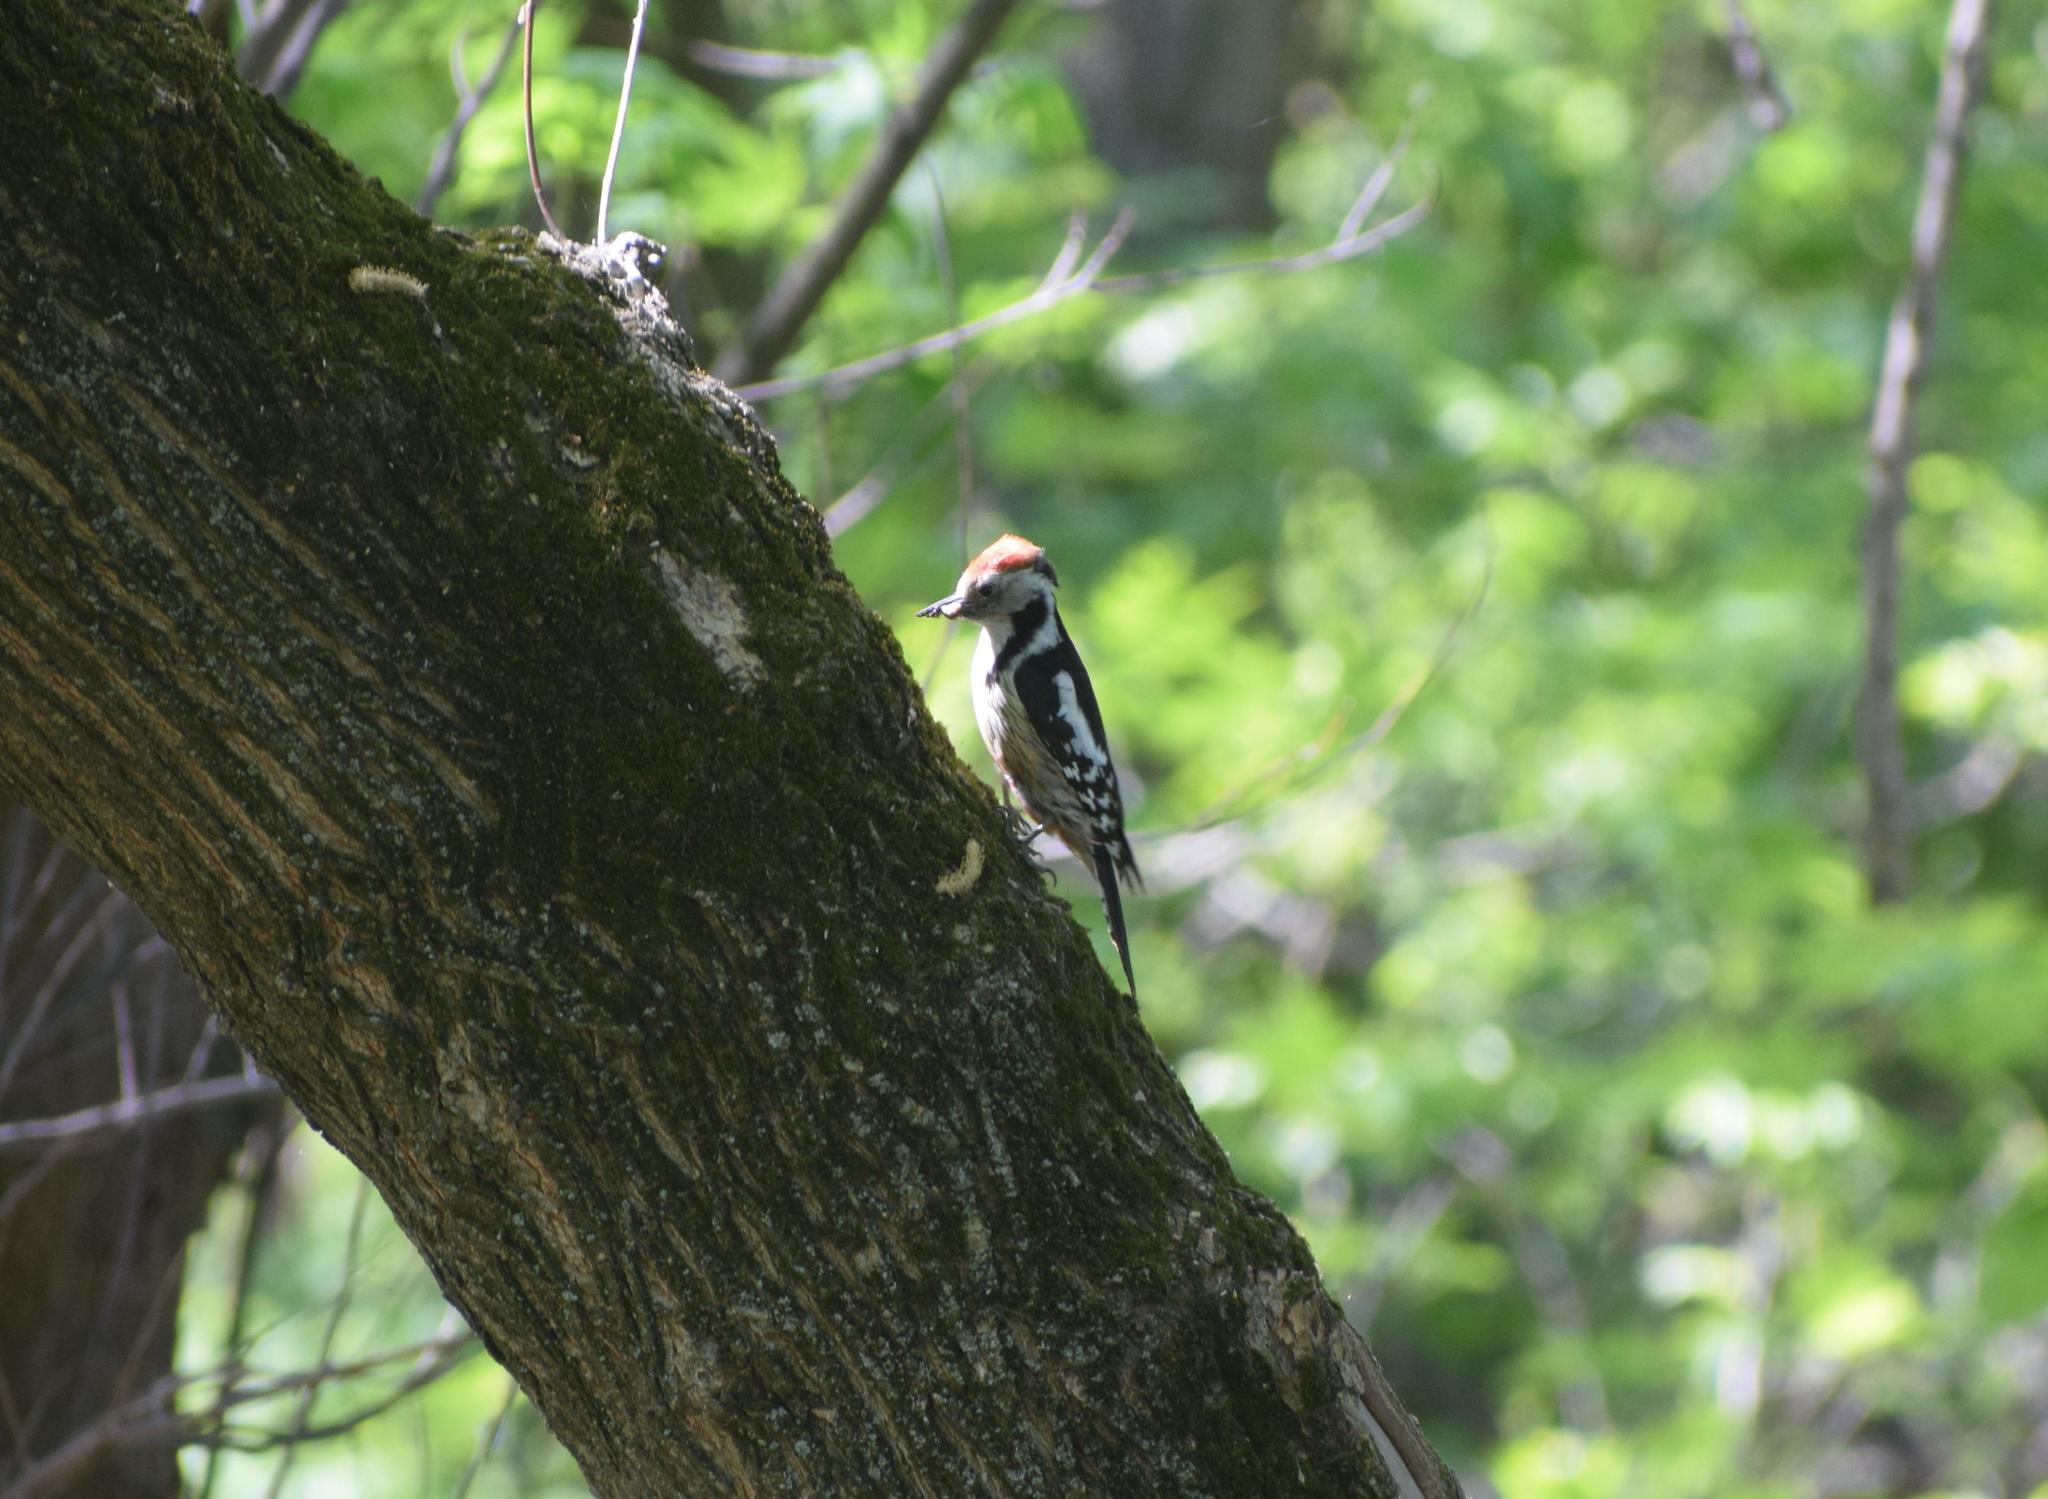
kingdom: Animalia
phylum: Chordata
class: Aves
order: Piciformes
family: Picidae
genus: Dendrocoptes
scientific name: Dendrocoptes medius
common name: Middle spotted woodpecker
